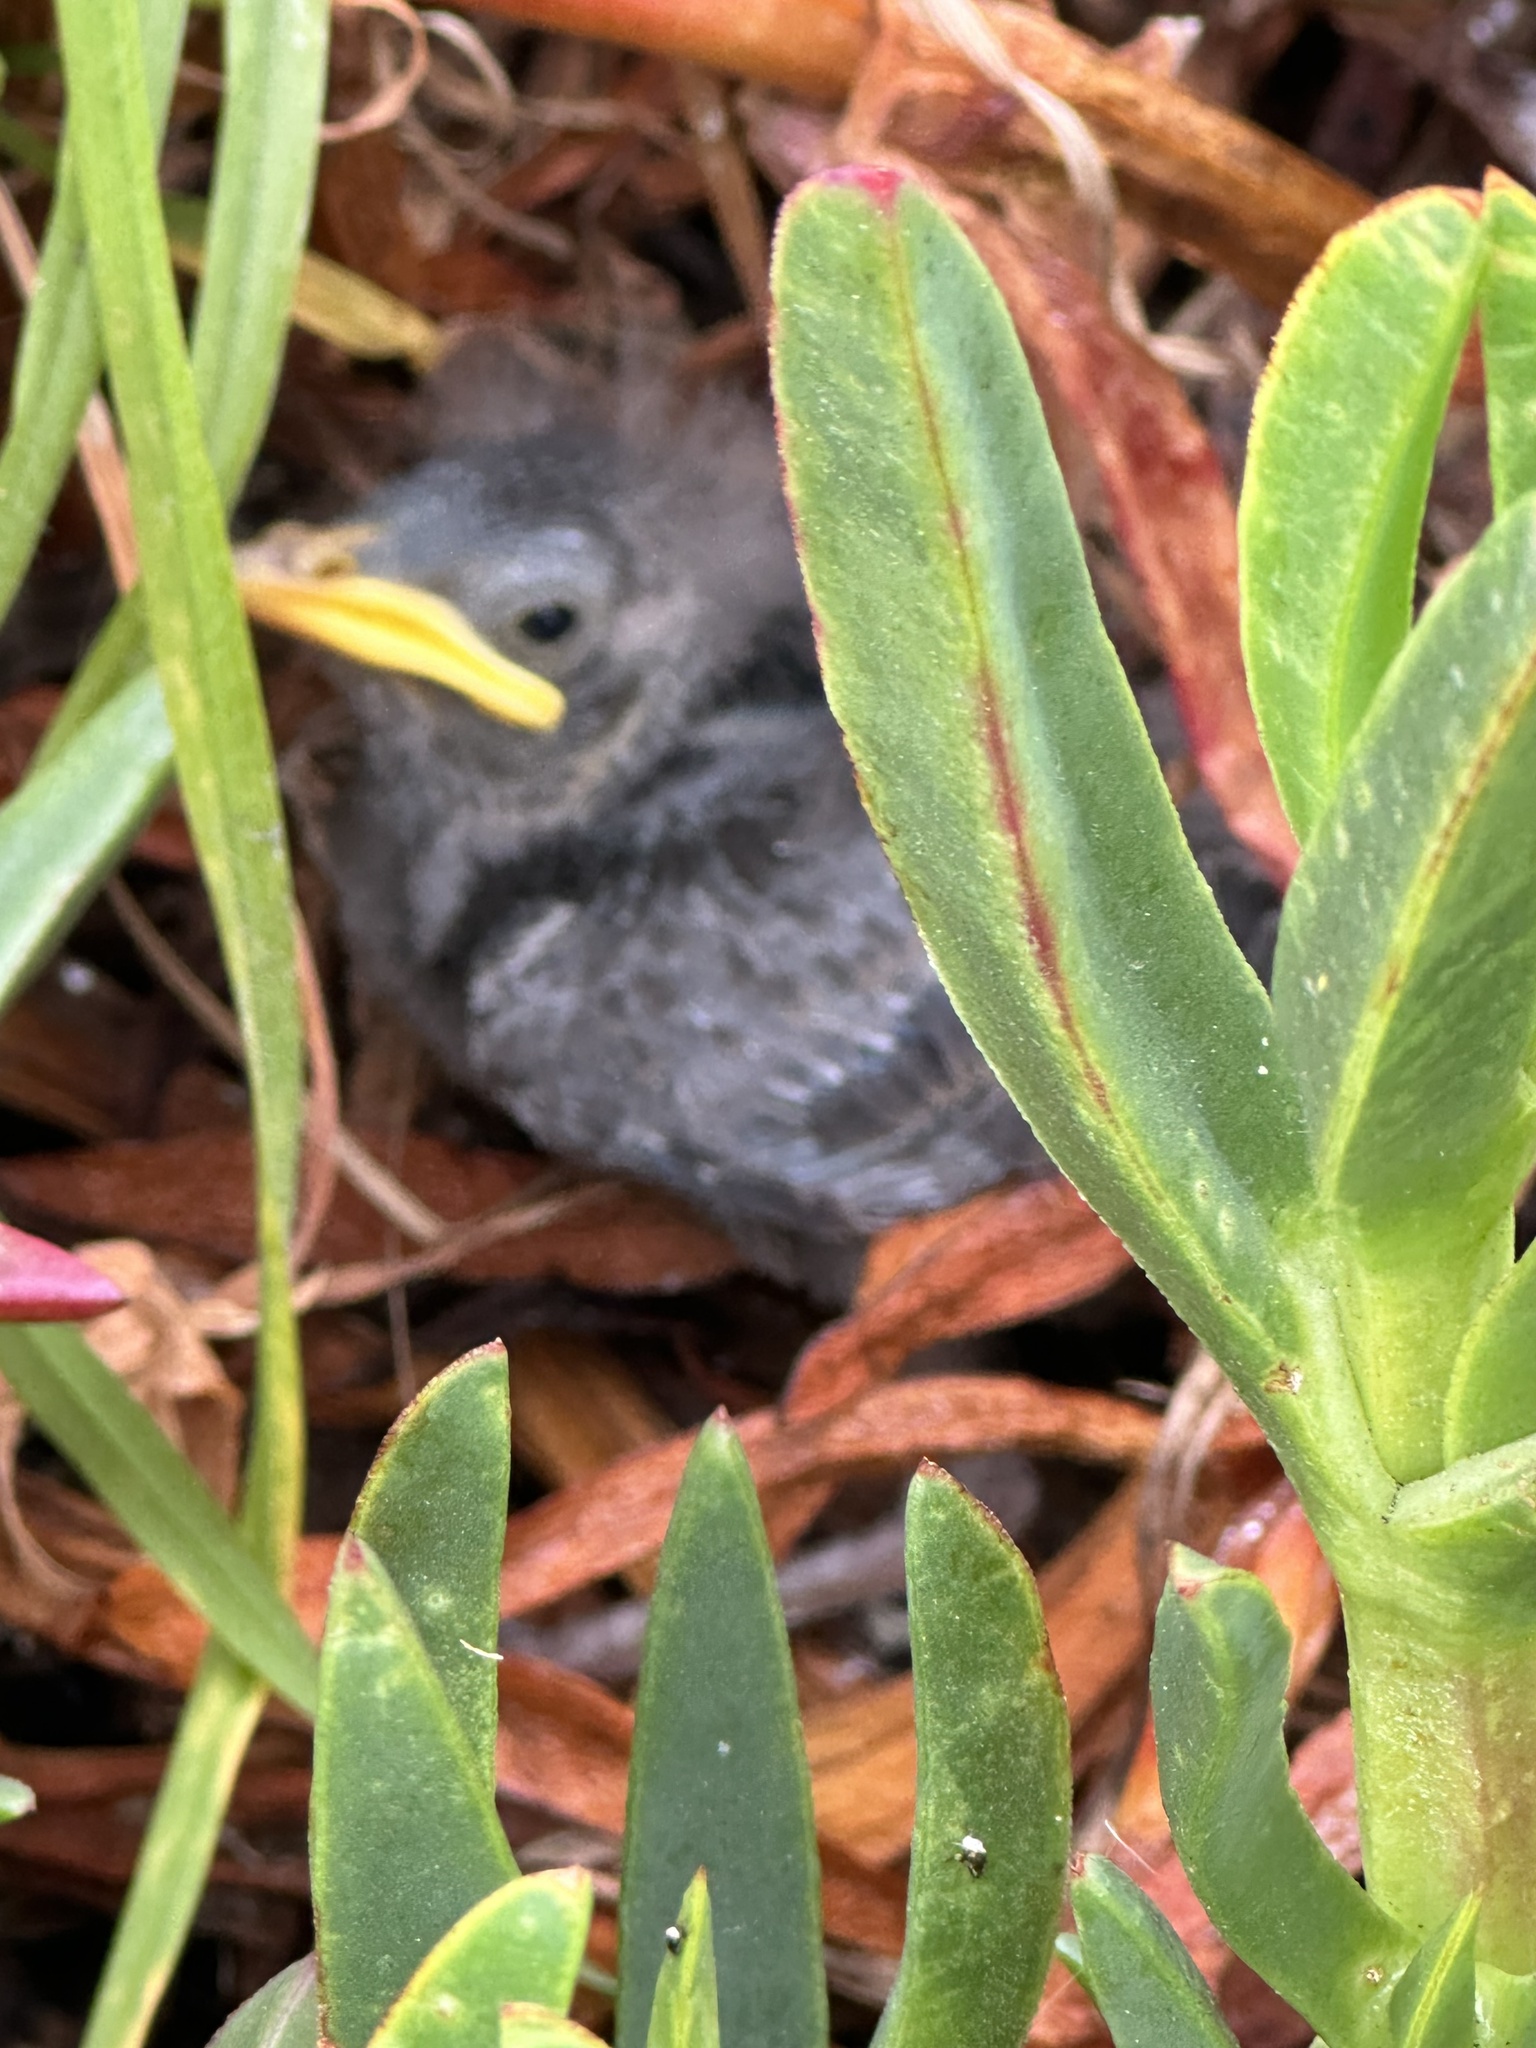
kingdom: Animalia
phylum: Chordata
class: Aves
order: Passeriformes
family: Sturnidae
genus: Sturnus
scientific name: Sturnus vulgaris
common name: Common starling
